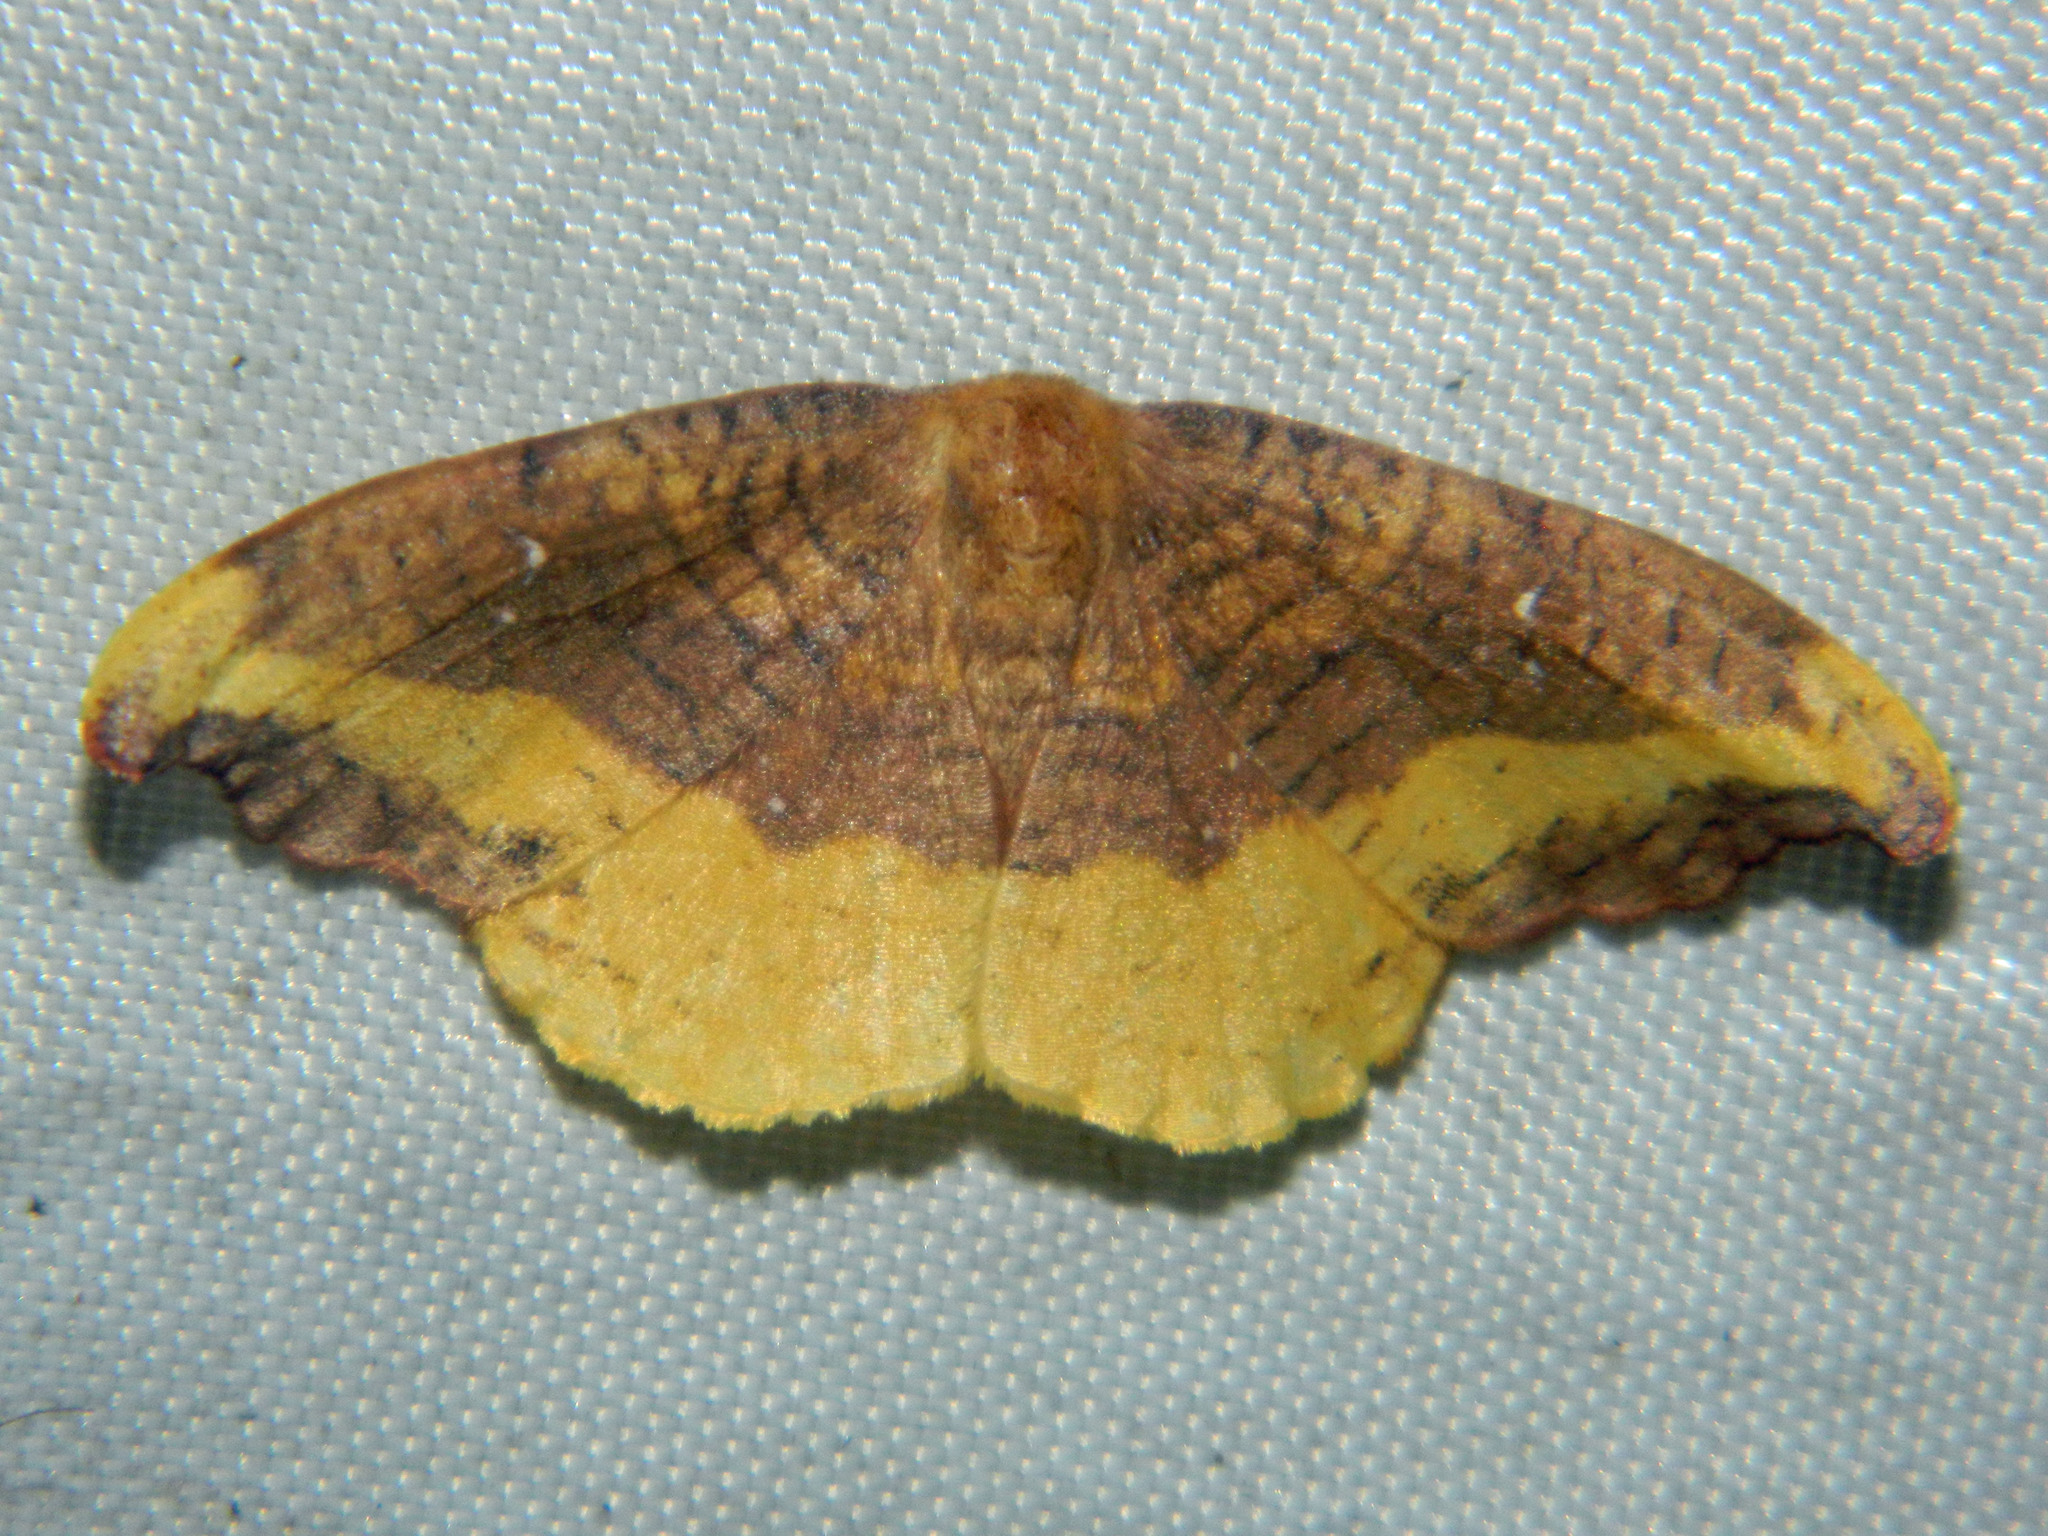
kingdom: Animalia
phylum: Arthropoda
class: Insecta
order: Lepidoptera
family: Drepanidae
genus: Oreta
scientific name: Oreta rosea
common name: Rose hooktip
